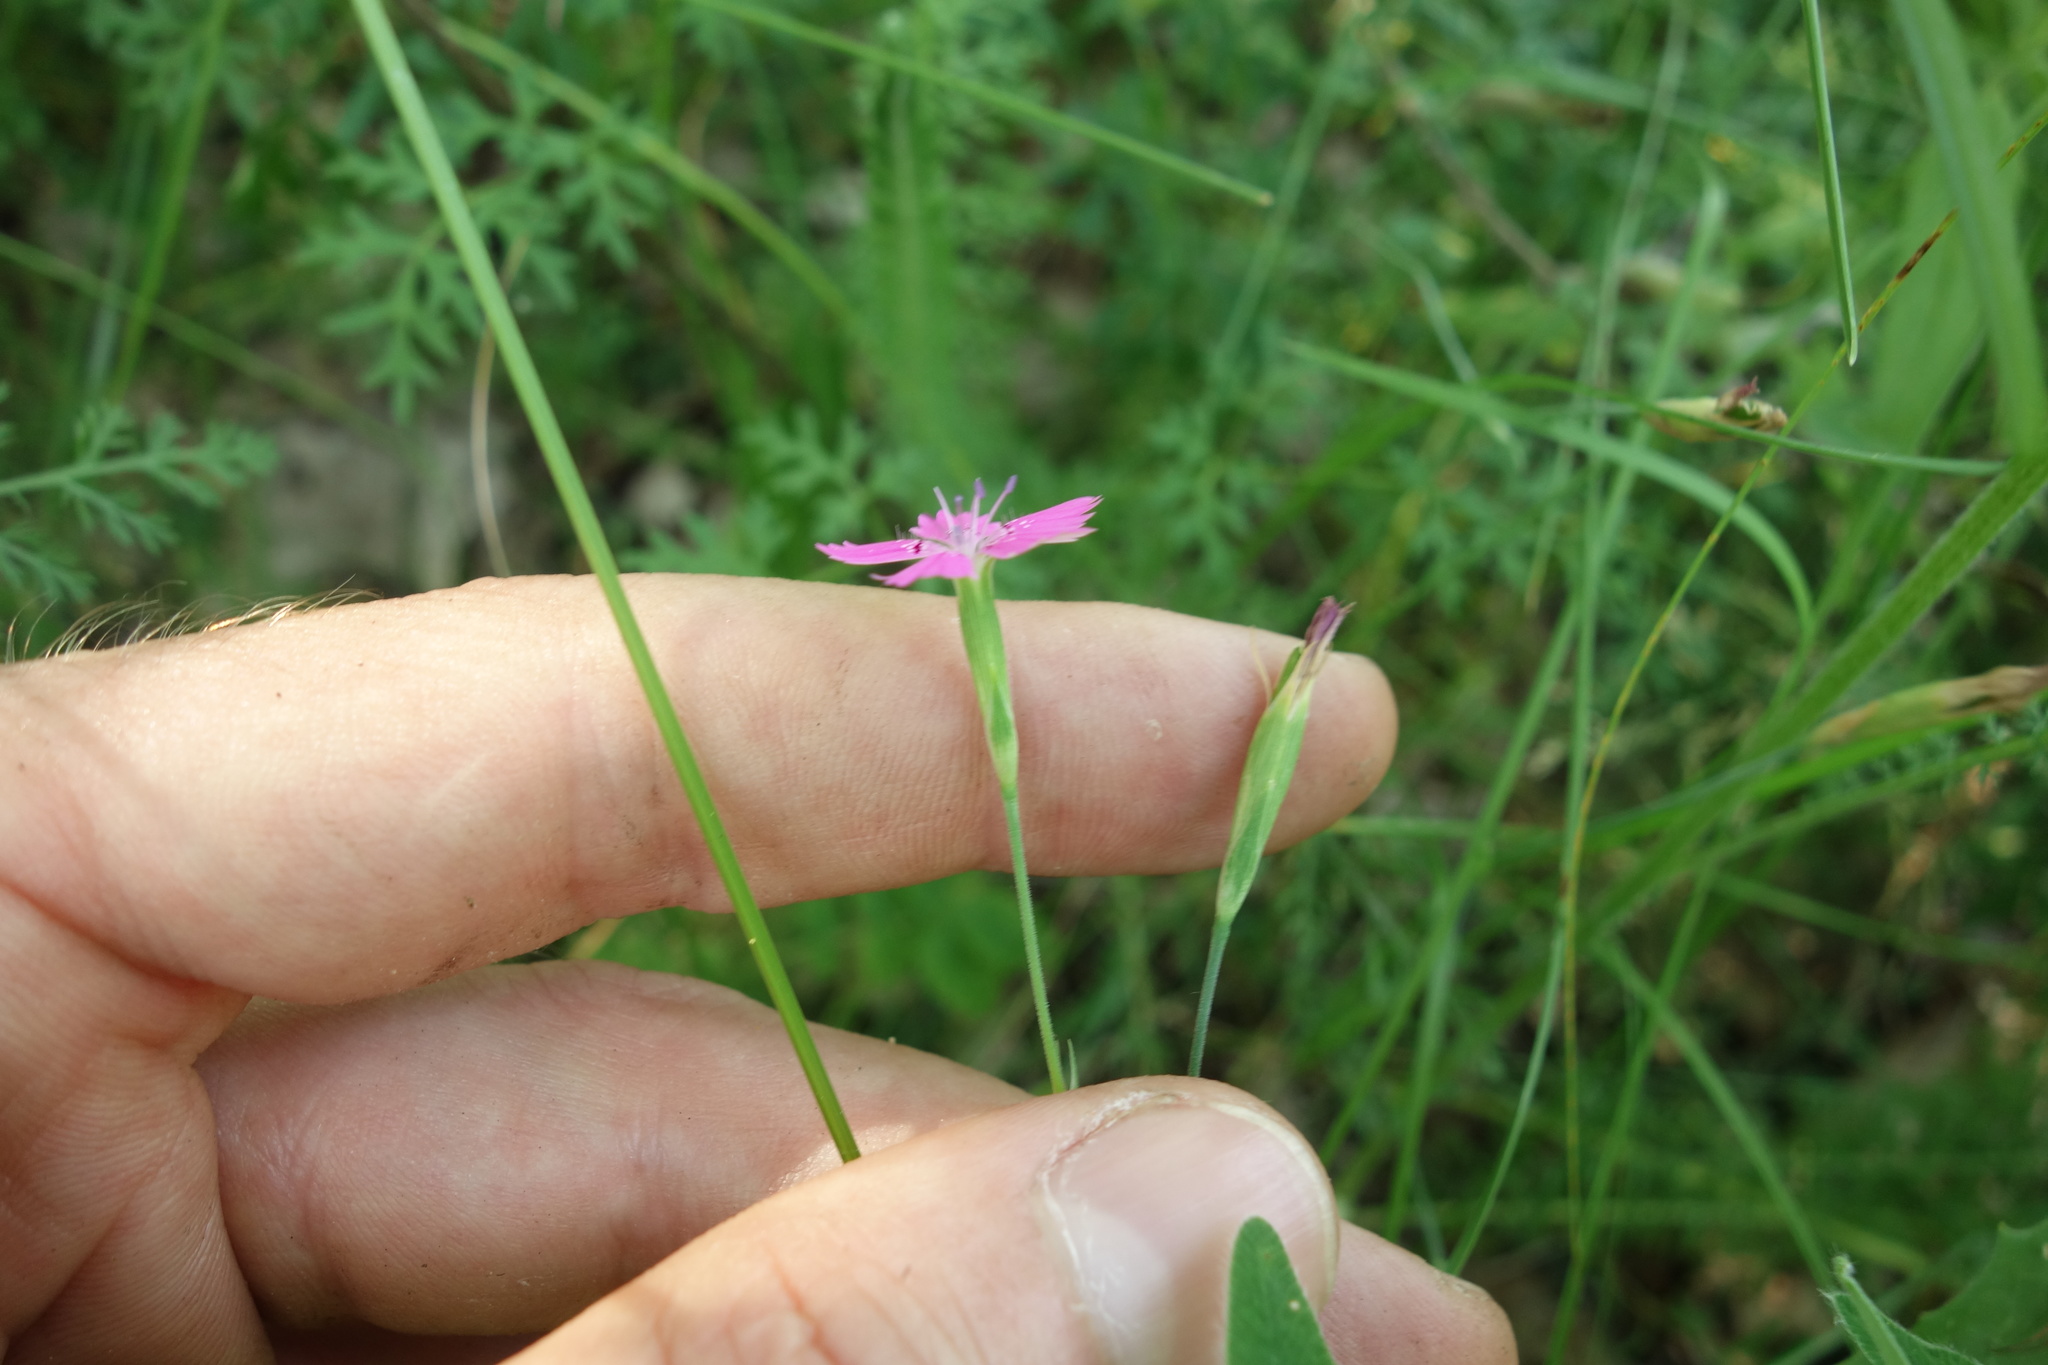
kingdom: Plantae
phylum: Tracheophyta
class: Magnoliopsida
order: Caryophyllales
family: Caryophyllaceae
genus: Dianthus
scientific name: Dianthus deltoides
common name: Maiden pink
